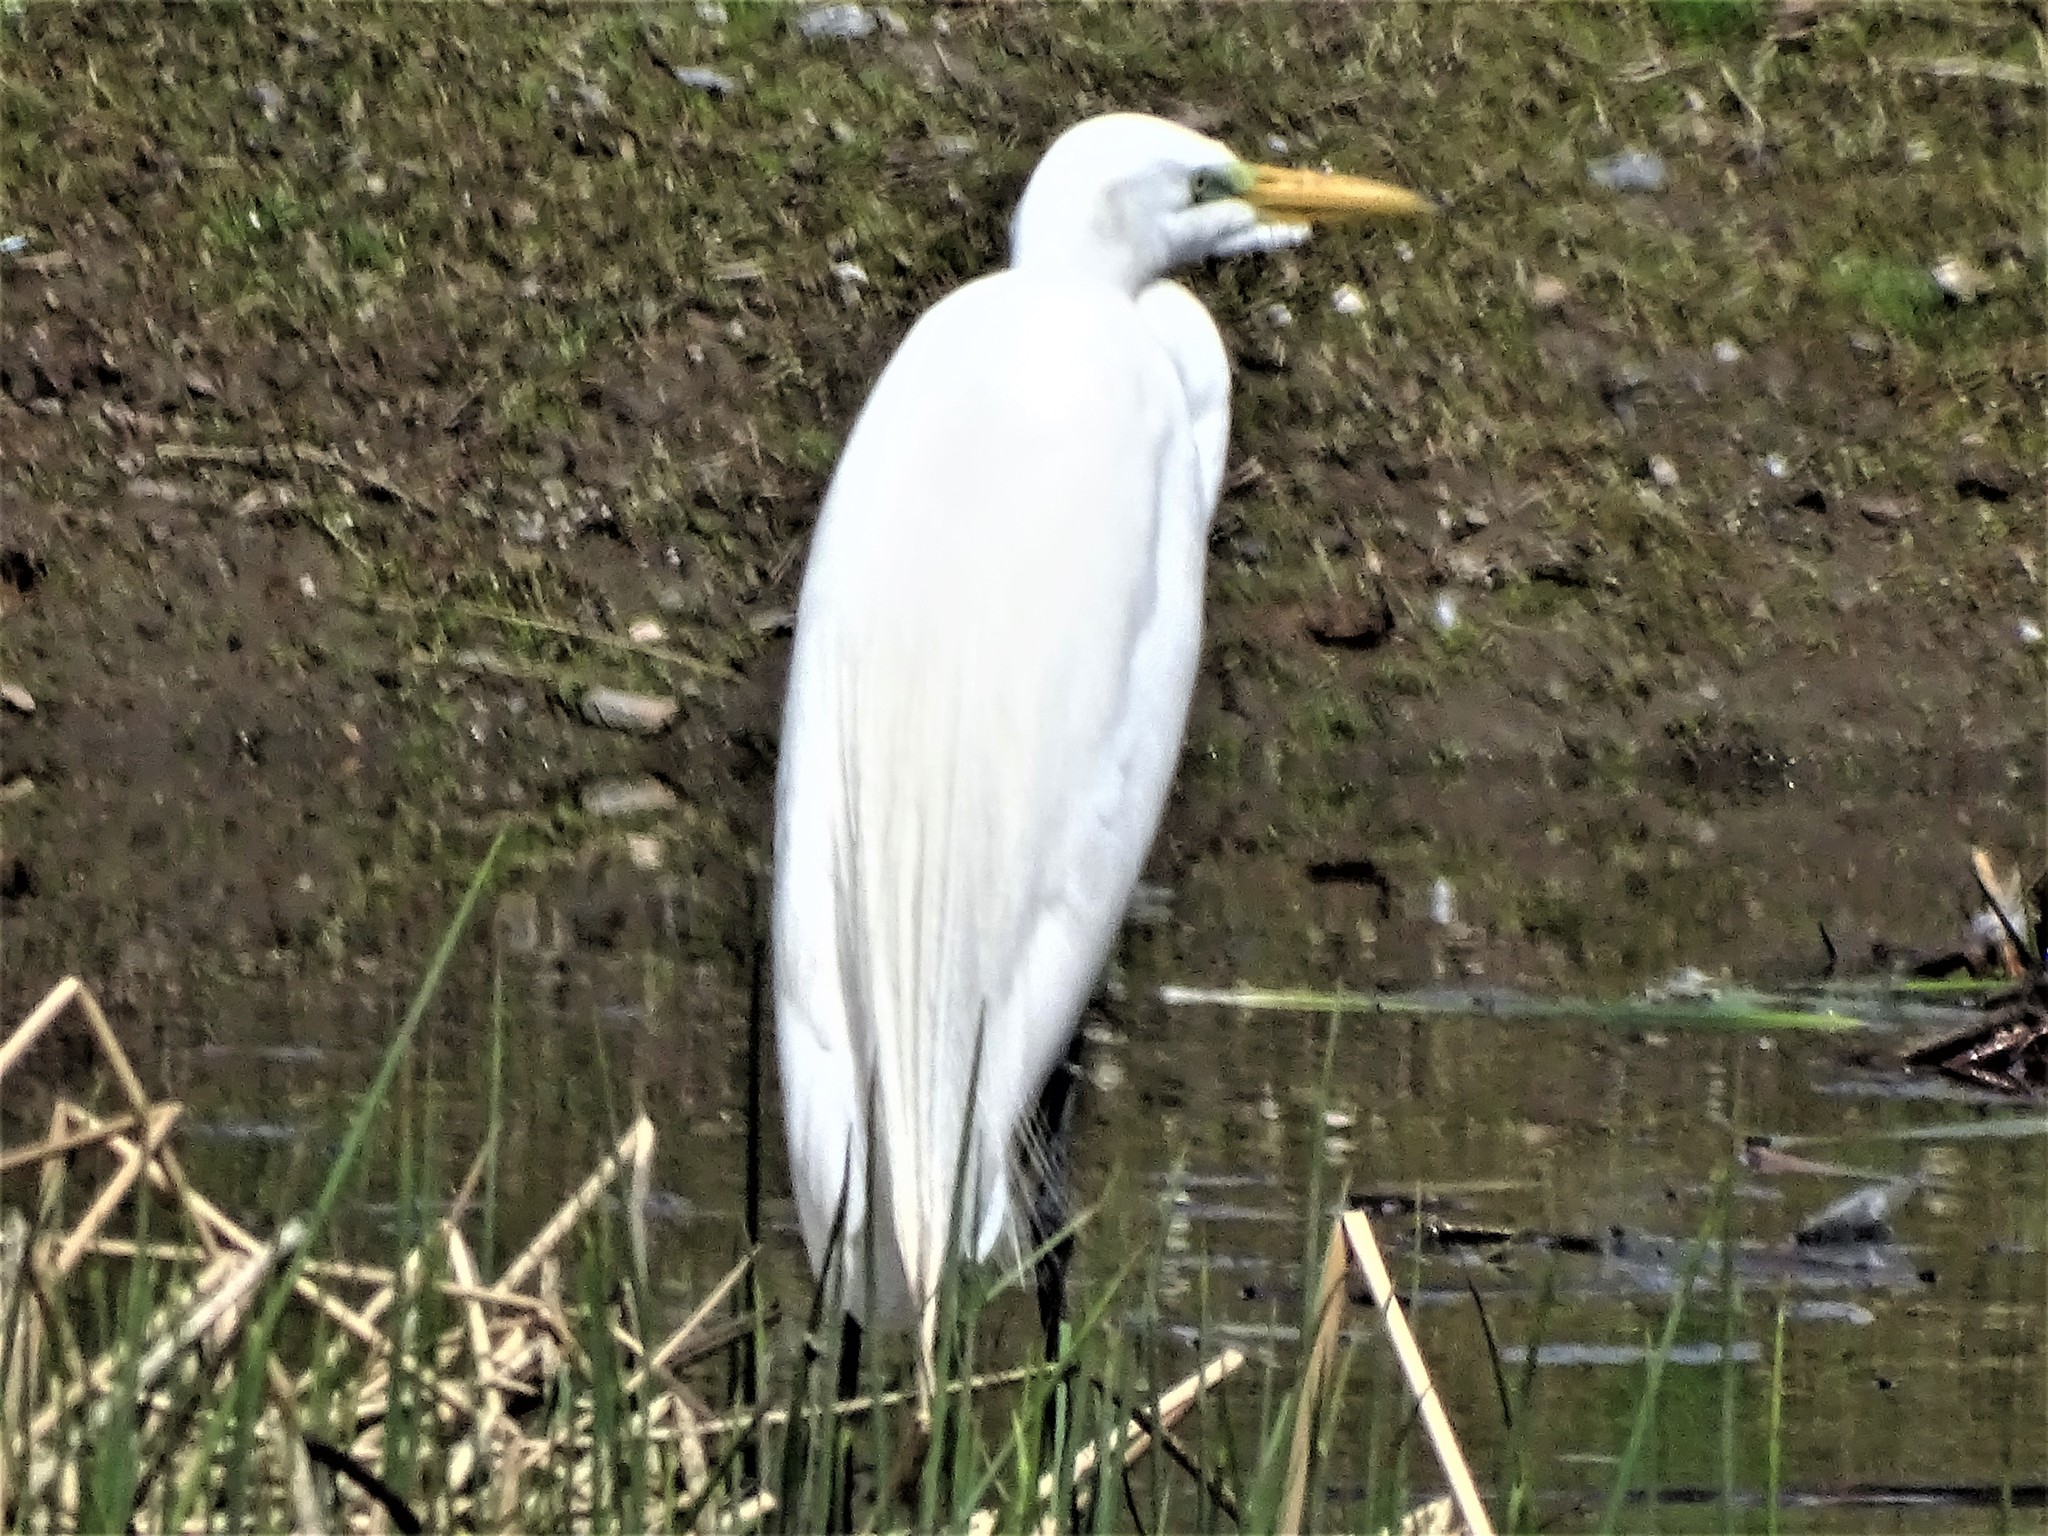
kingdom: Animalia
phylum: Chordata
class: Aves
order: Pelecaniformes
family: Ardeidae
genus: Ardea
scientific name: Ardea alba
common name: Great egret
